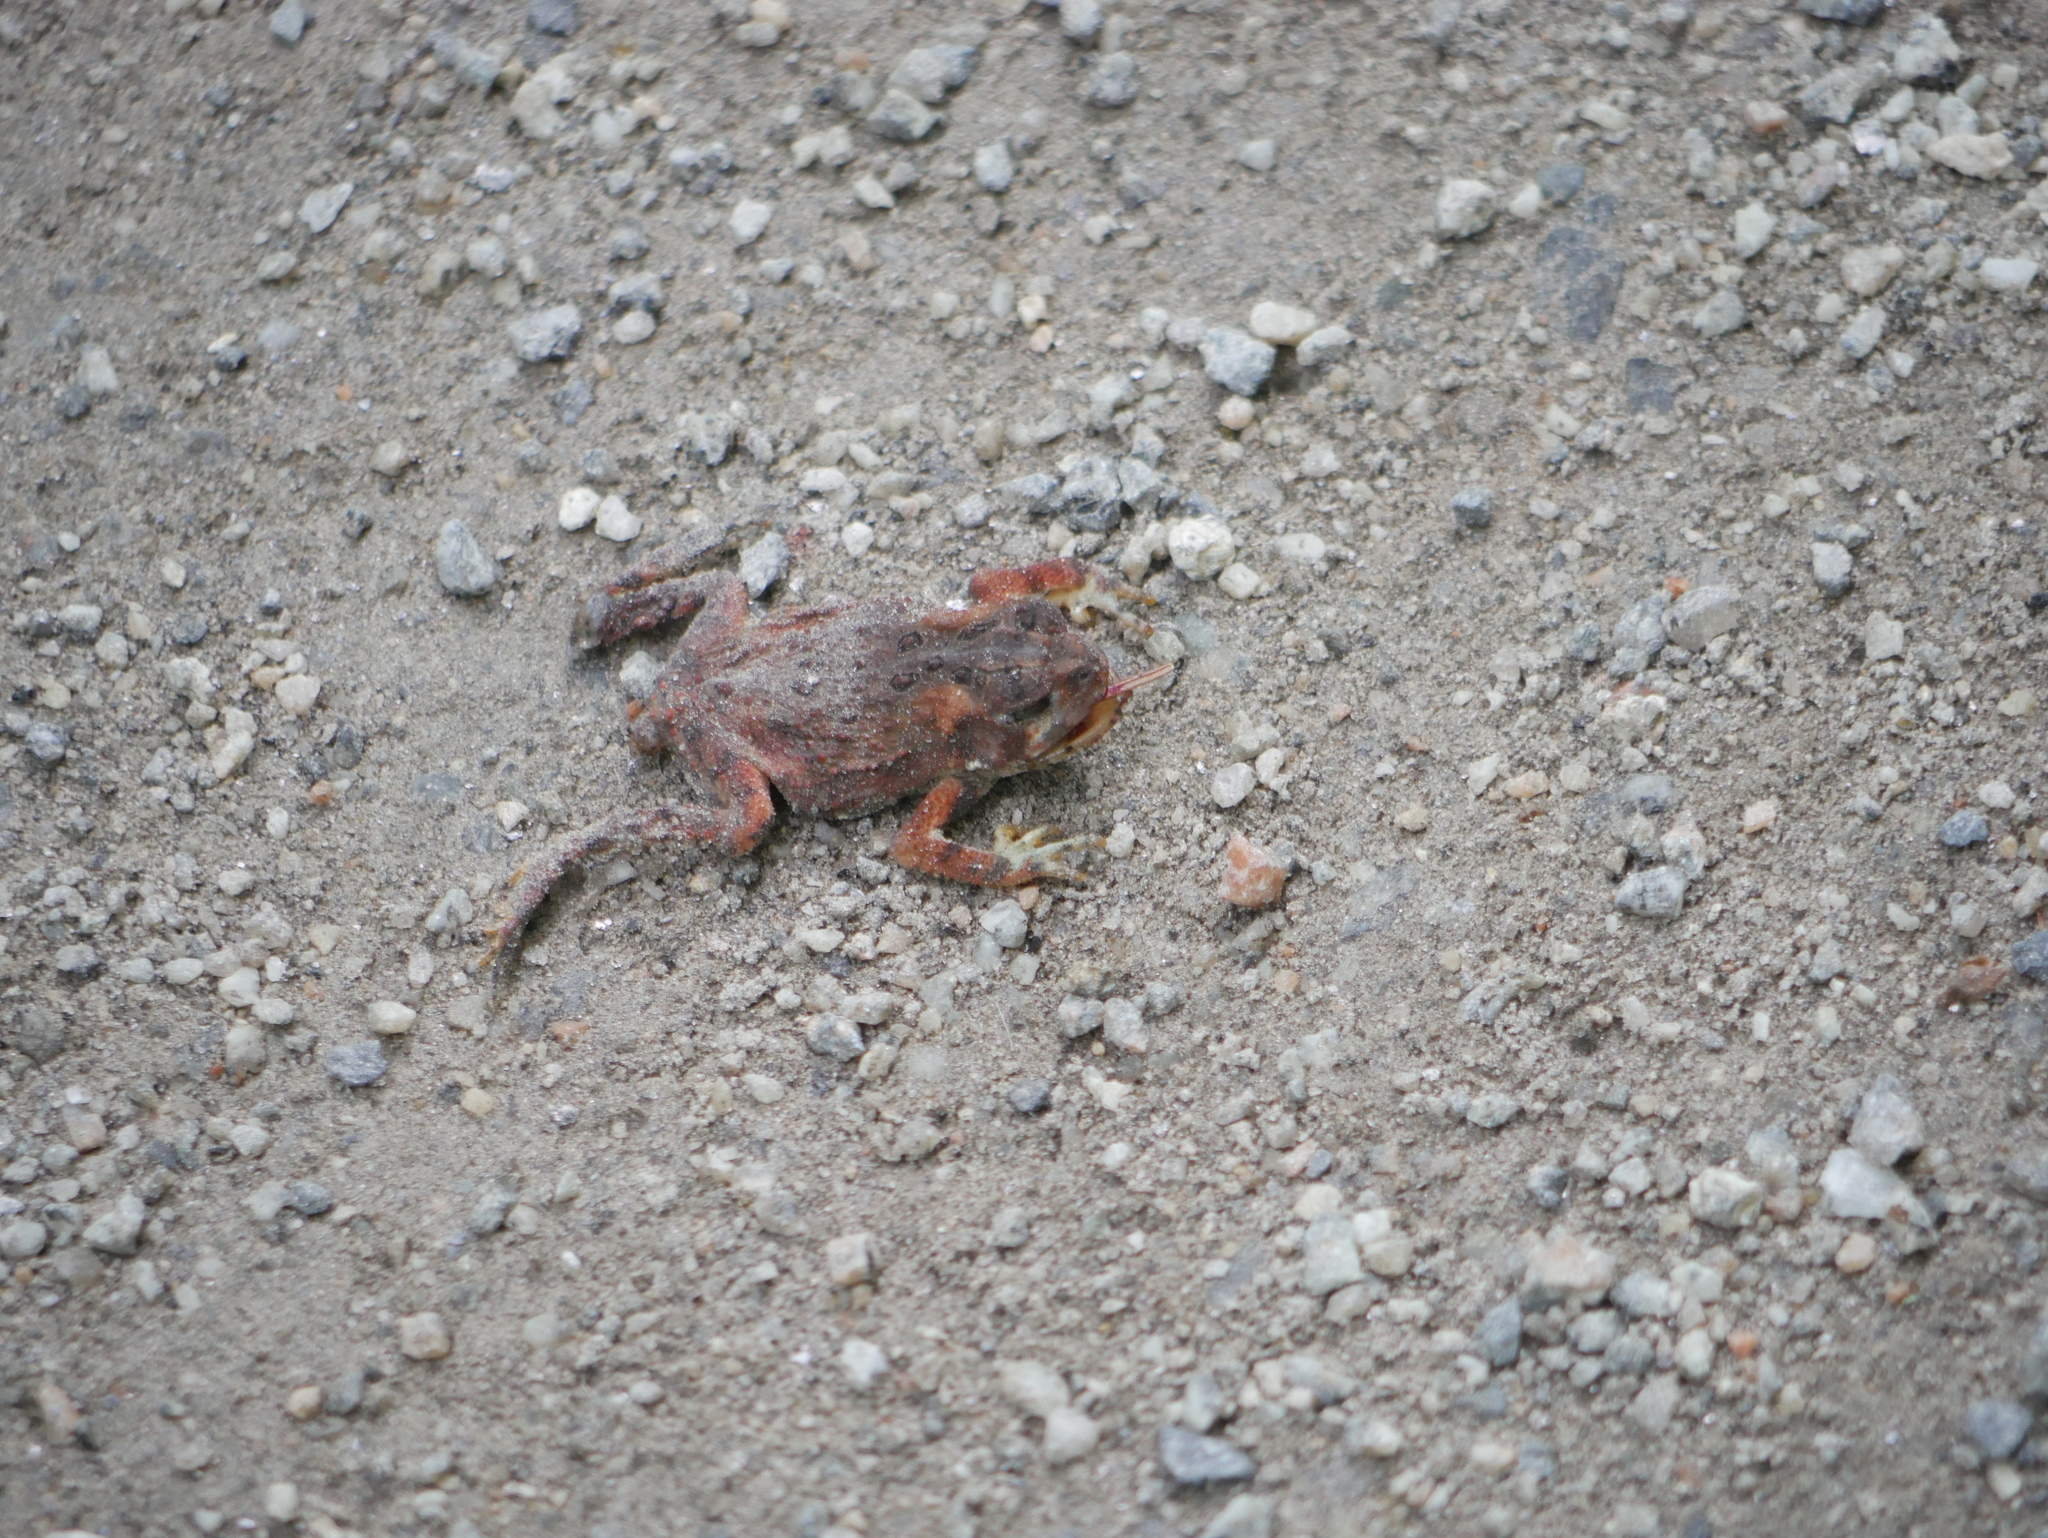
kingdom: Animalia
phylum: Chordata
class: Amphibia
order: Anura
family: Bufonidae
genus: Anaxyrus
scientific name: Anaxyrus americanus
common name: American toad
